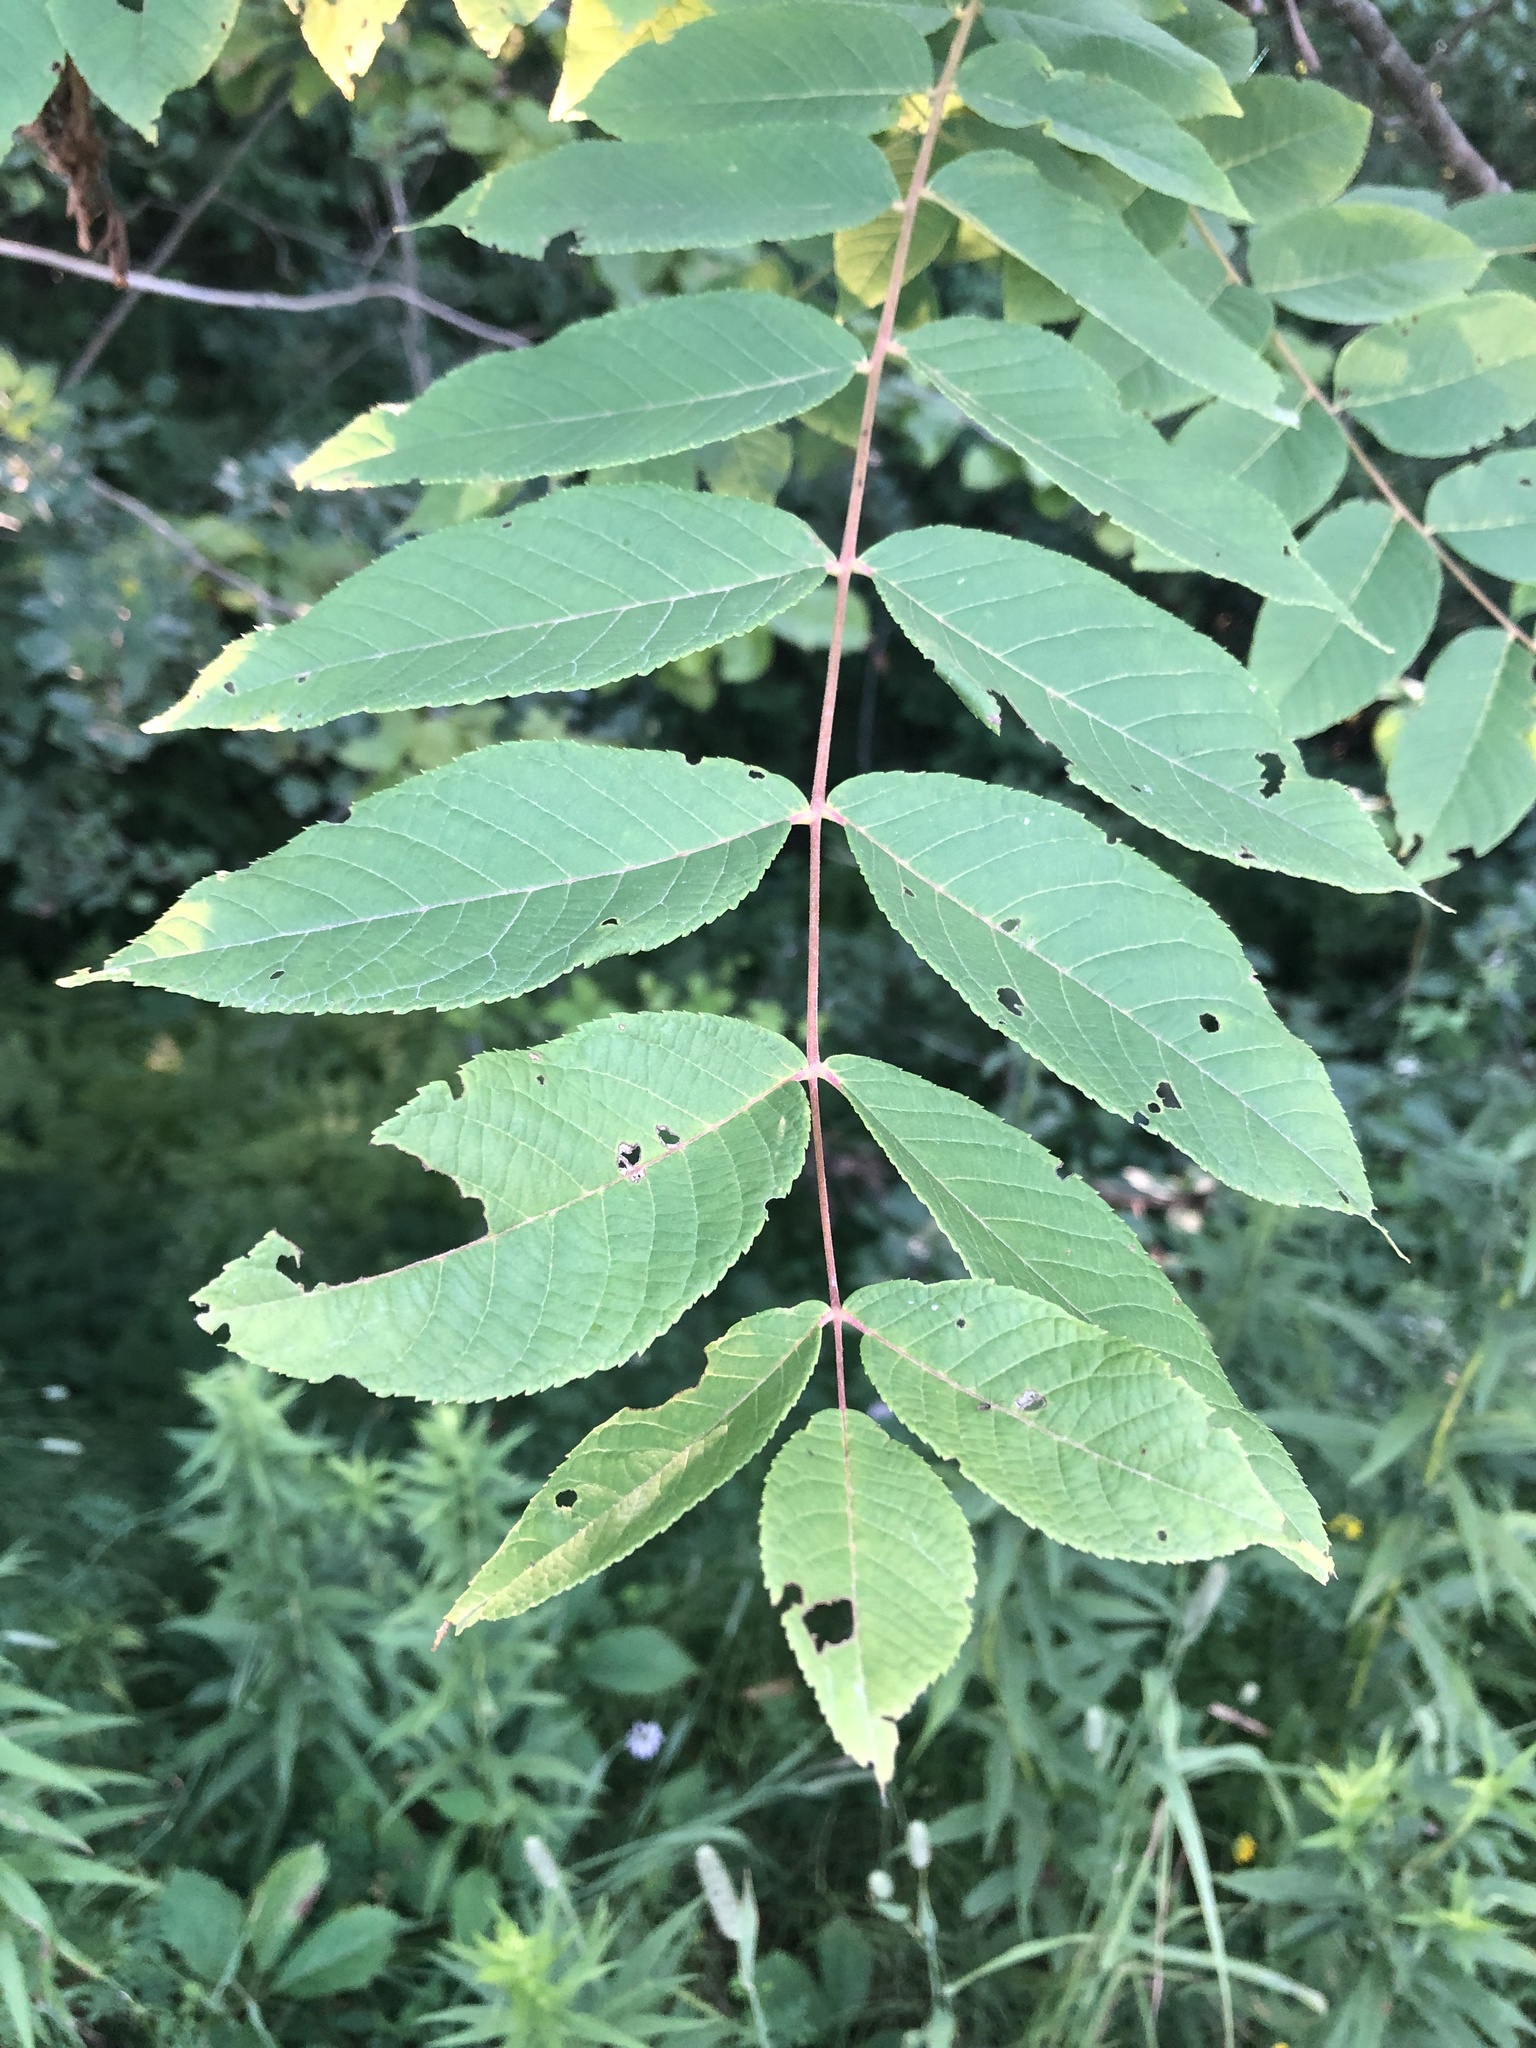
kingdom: Plantae
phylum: Tracheophyta
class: Magnoliopsida
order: Fagales
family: Juglandaceae
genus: Juglans
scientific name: Juglans nigra
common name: Black walnut
